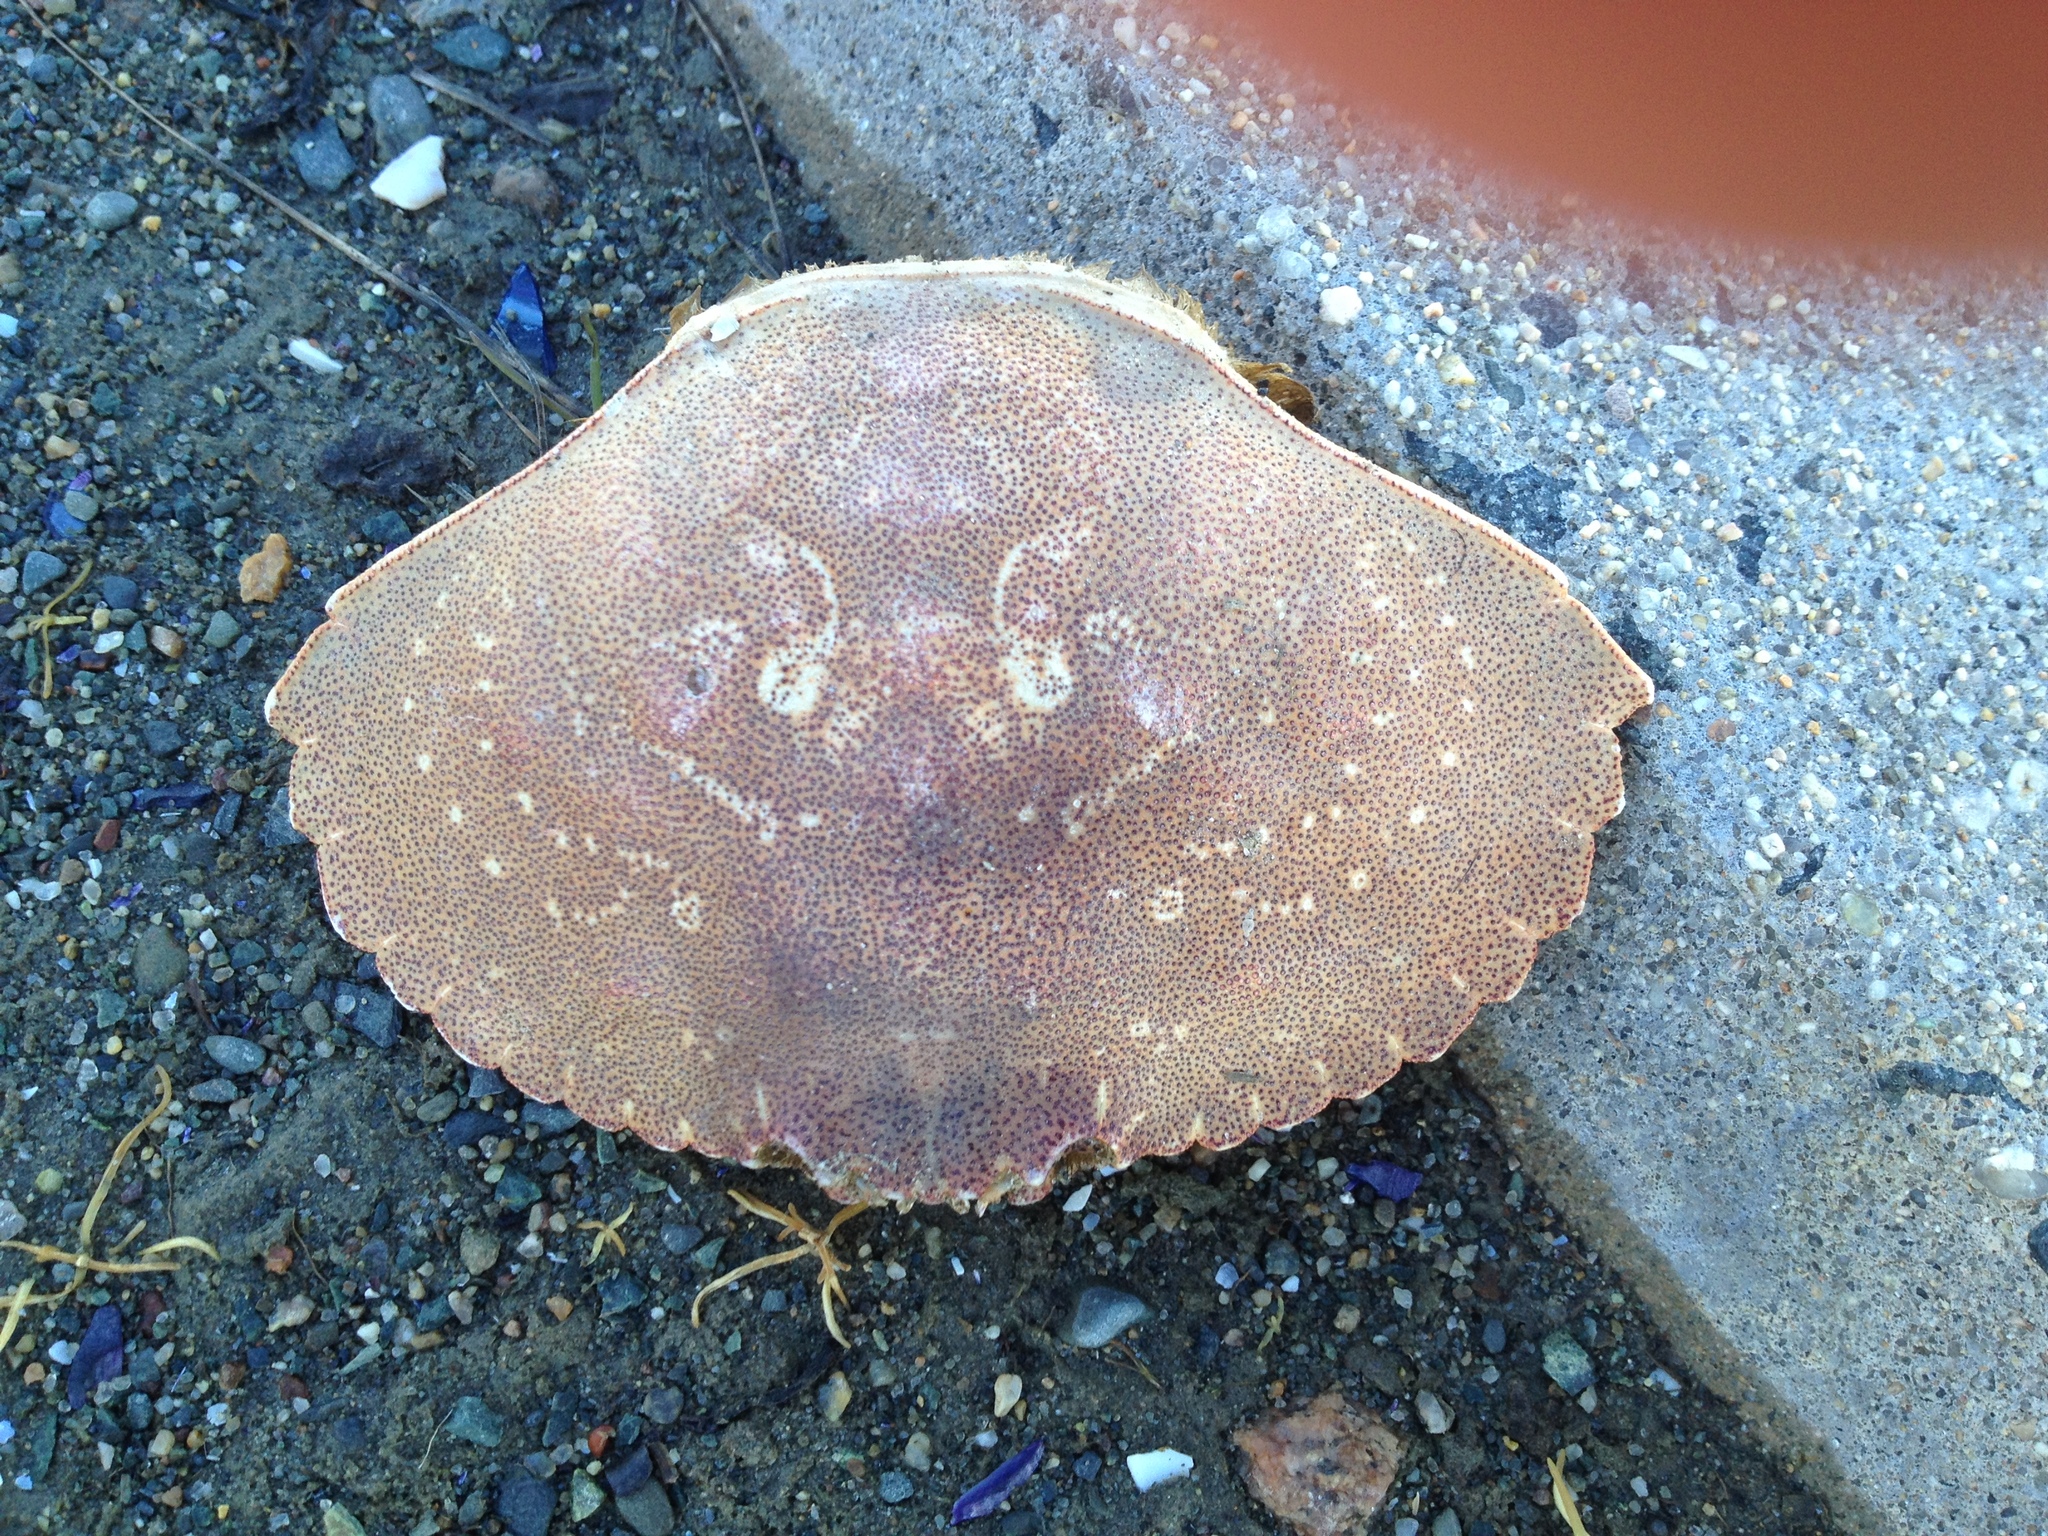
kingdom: Animalia
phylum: Arthropoda
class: Malacostraca
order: Decapoda
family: Cancridae
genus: Cancer
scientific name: Cancer irroratus
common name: Atlantic rock crab
